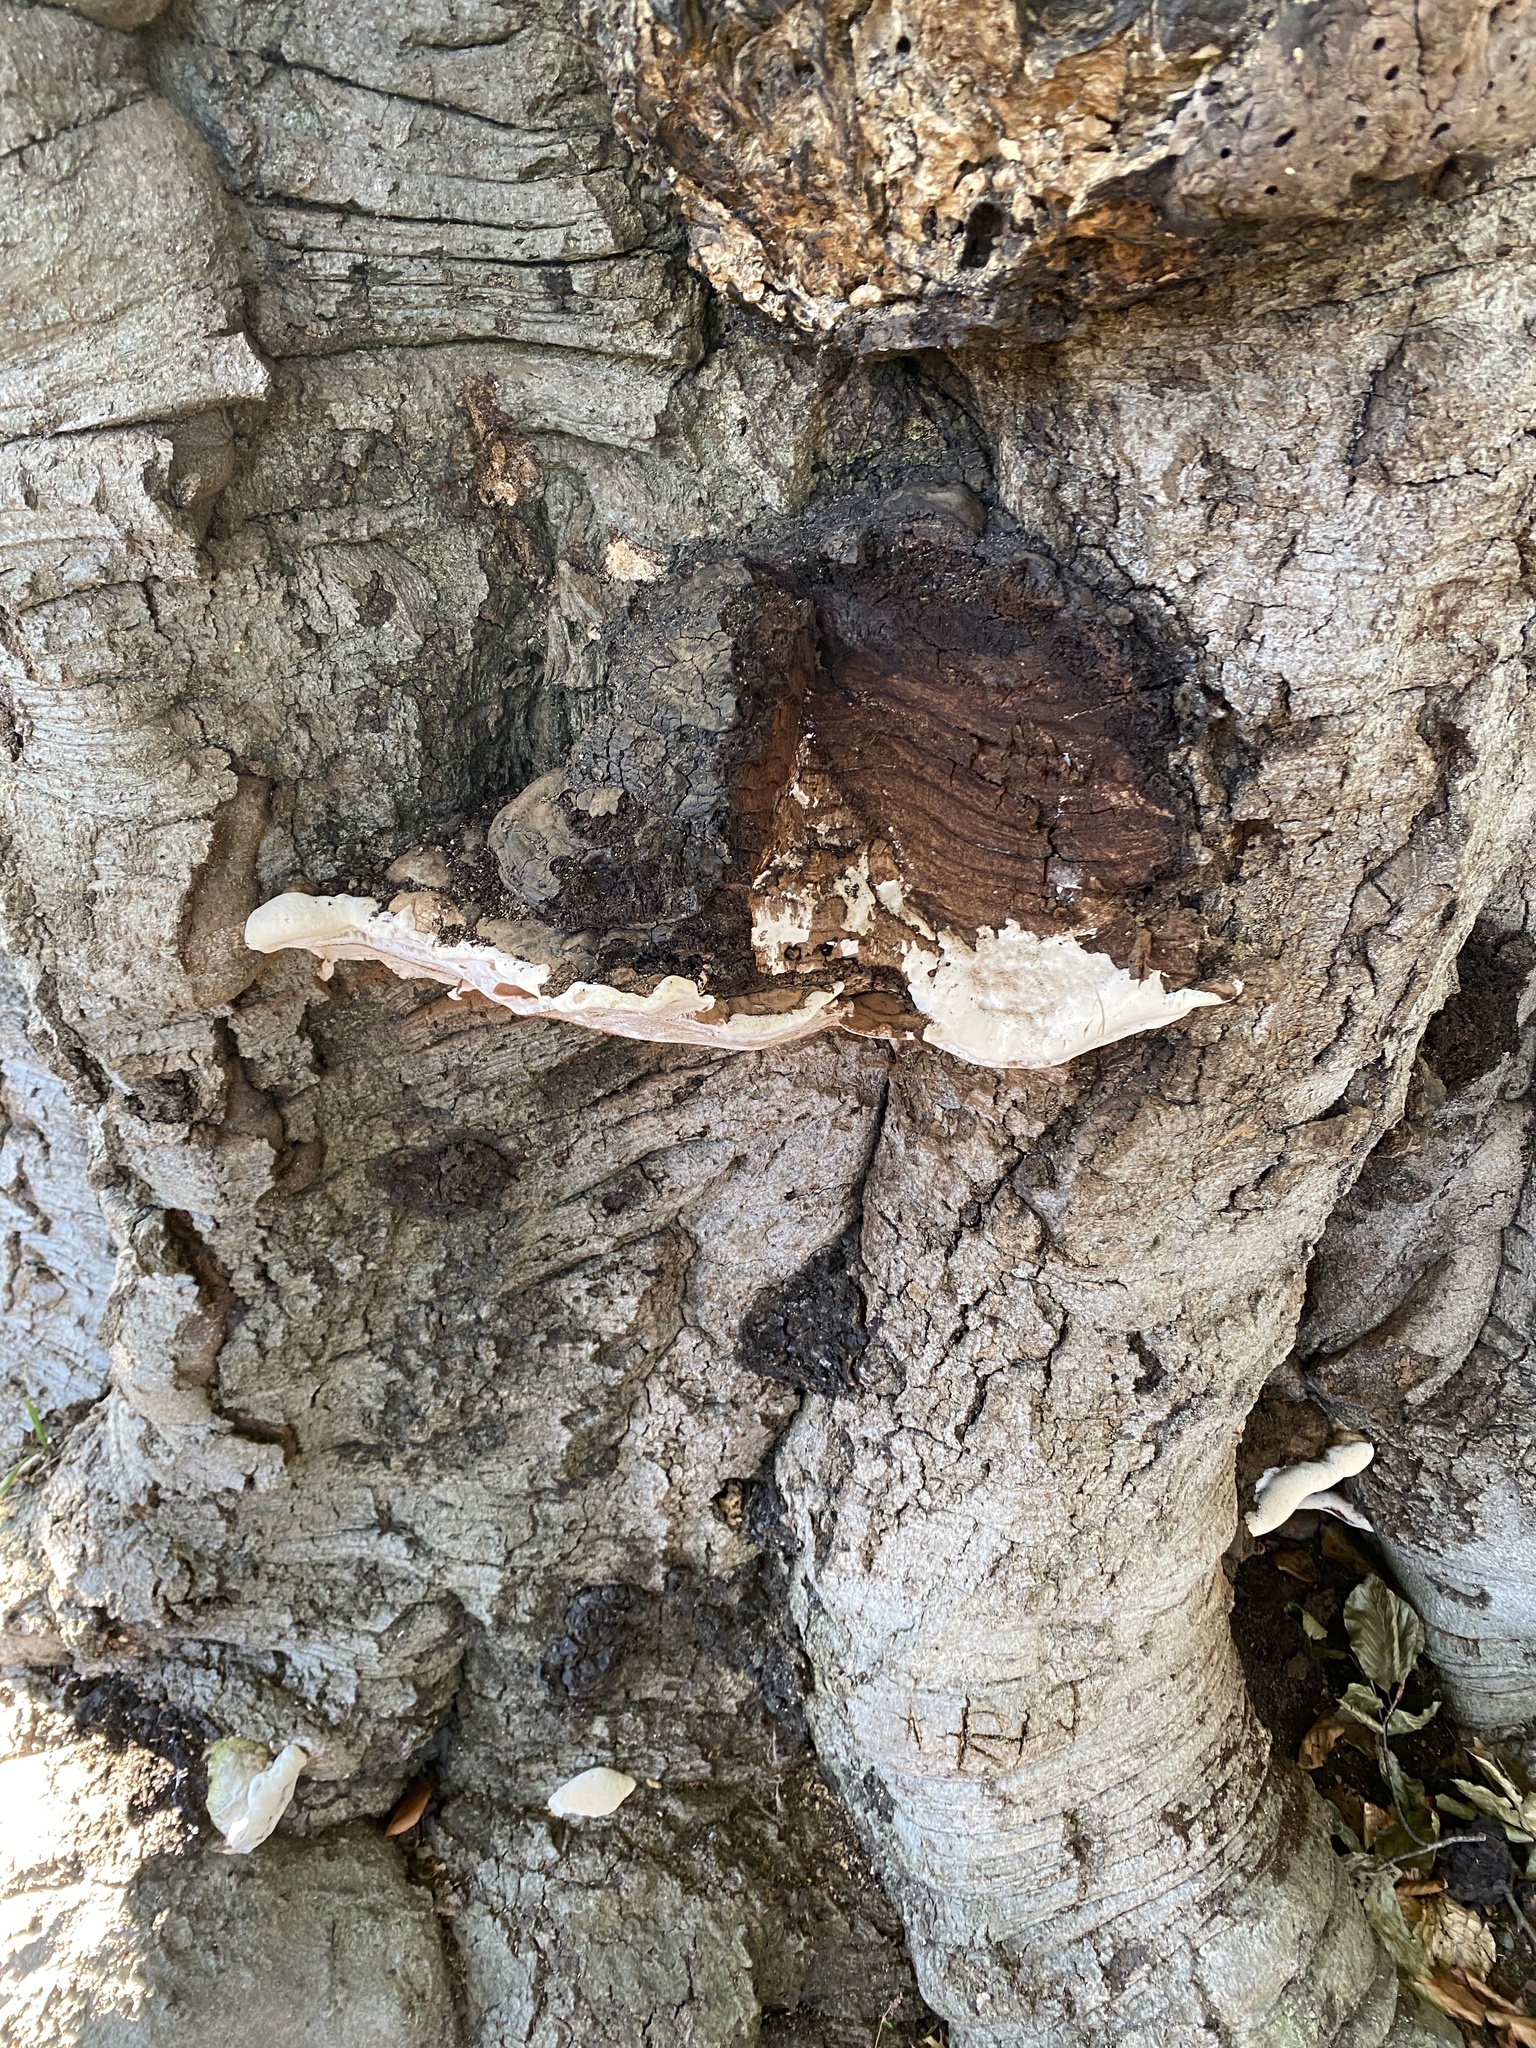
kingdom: Fungi
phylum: Basidiomycota
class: Agaricomycetes
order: Hymenochaetales
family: Oxyporaceae
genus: Oxyporus
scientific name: Oxyporus populinus
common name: Poplar bracket
